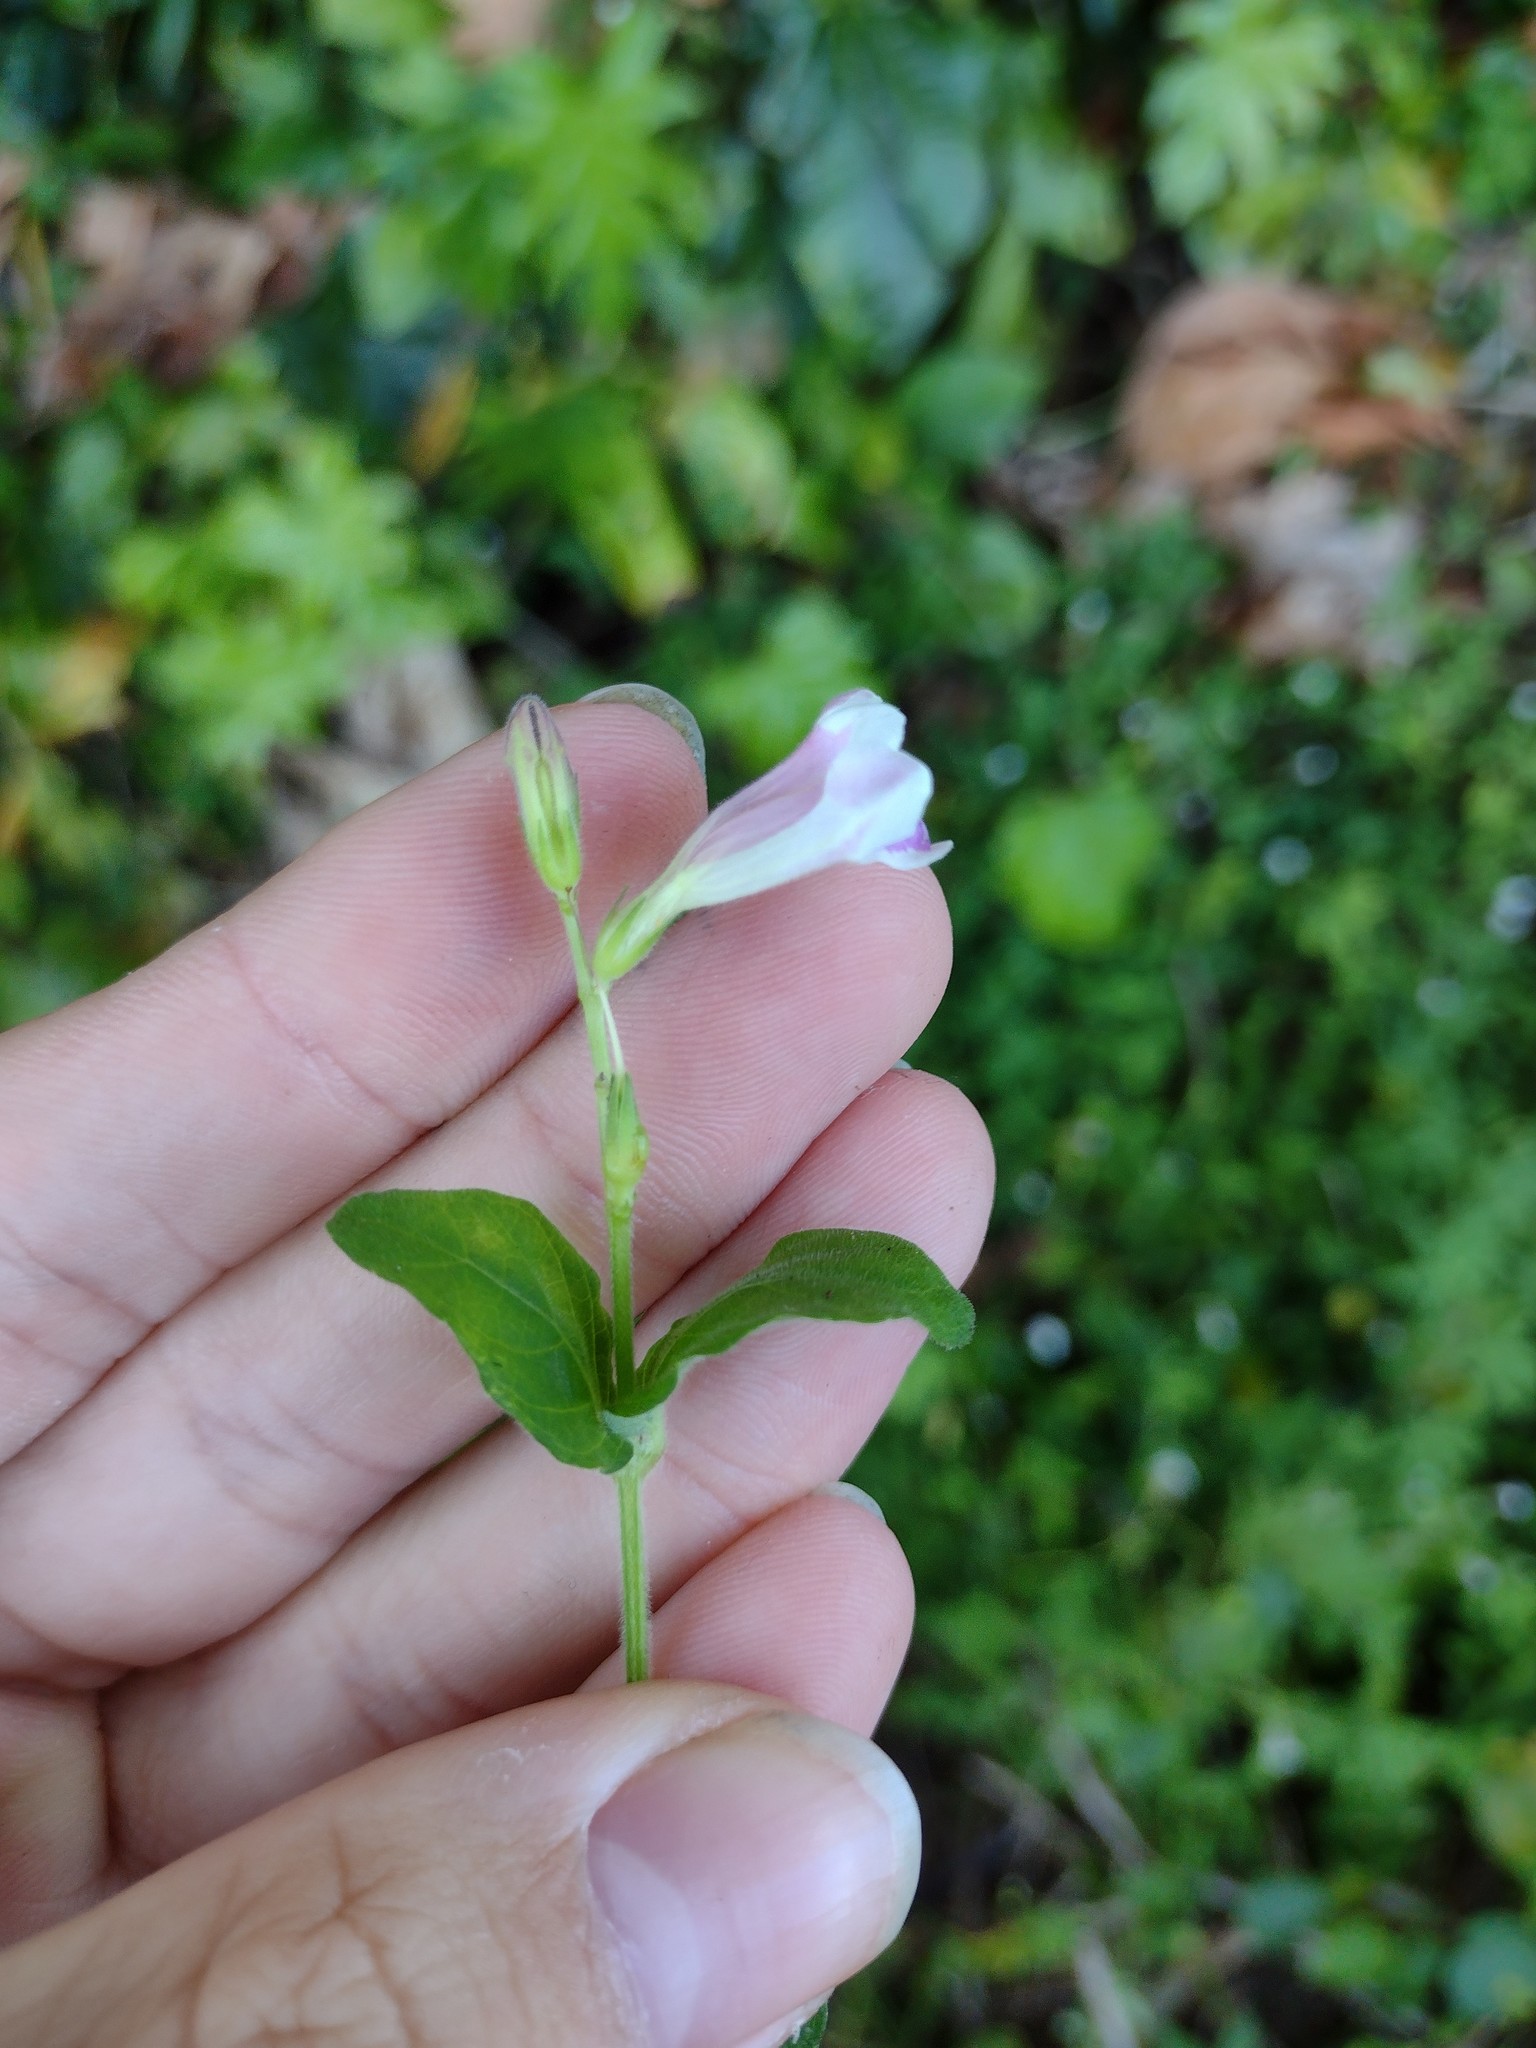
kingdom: Plantae
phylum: Tracheophyta
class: Magnoliopsida
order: Lamiales
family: Acanthaceae
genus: Asystasia
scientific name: Asystasia intrusa
